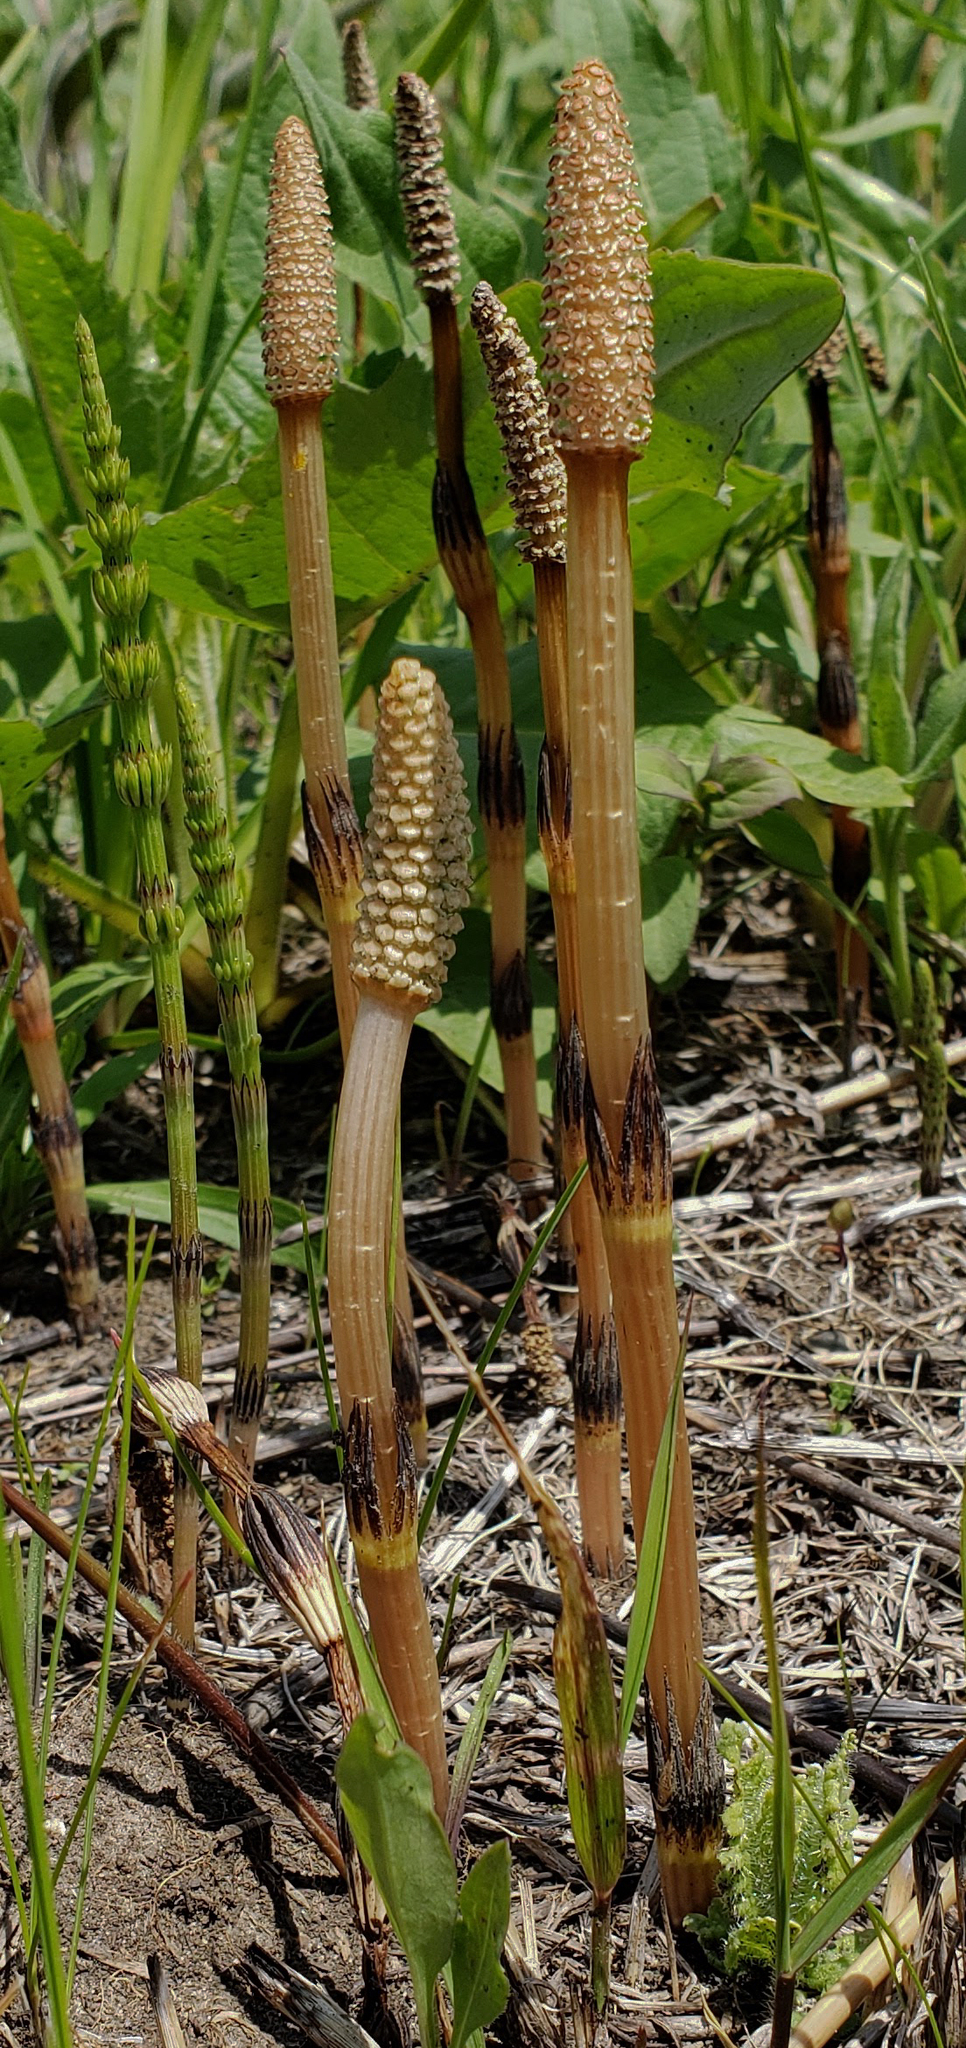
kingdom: Plantae
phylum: Tracheophyta
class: Polypodiopsida
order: Equisetales
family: Equisetaceae
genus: Equisetum
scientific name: Equisetum arvense
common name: Field horsetail
